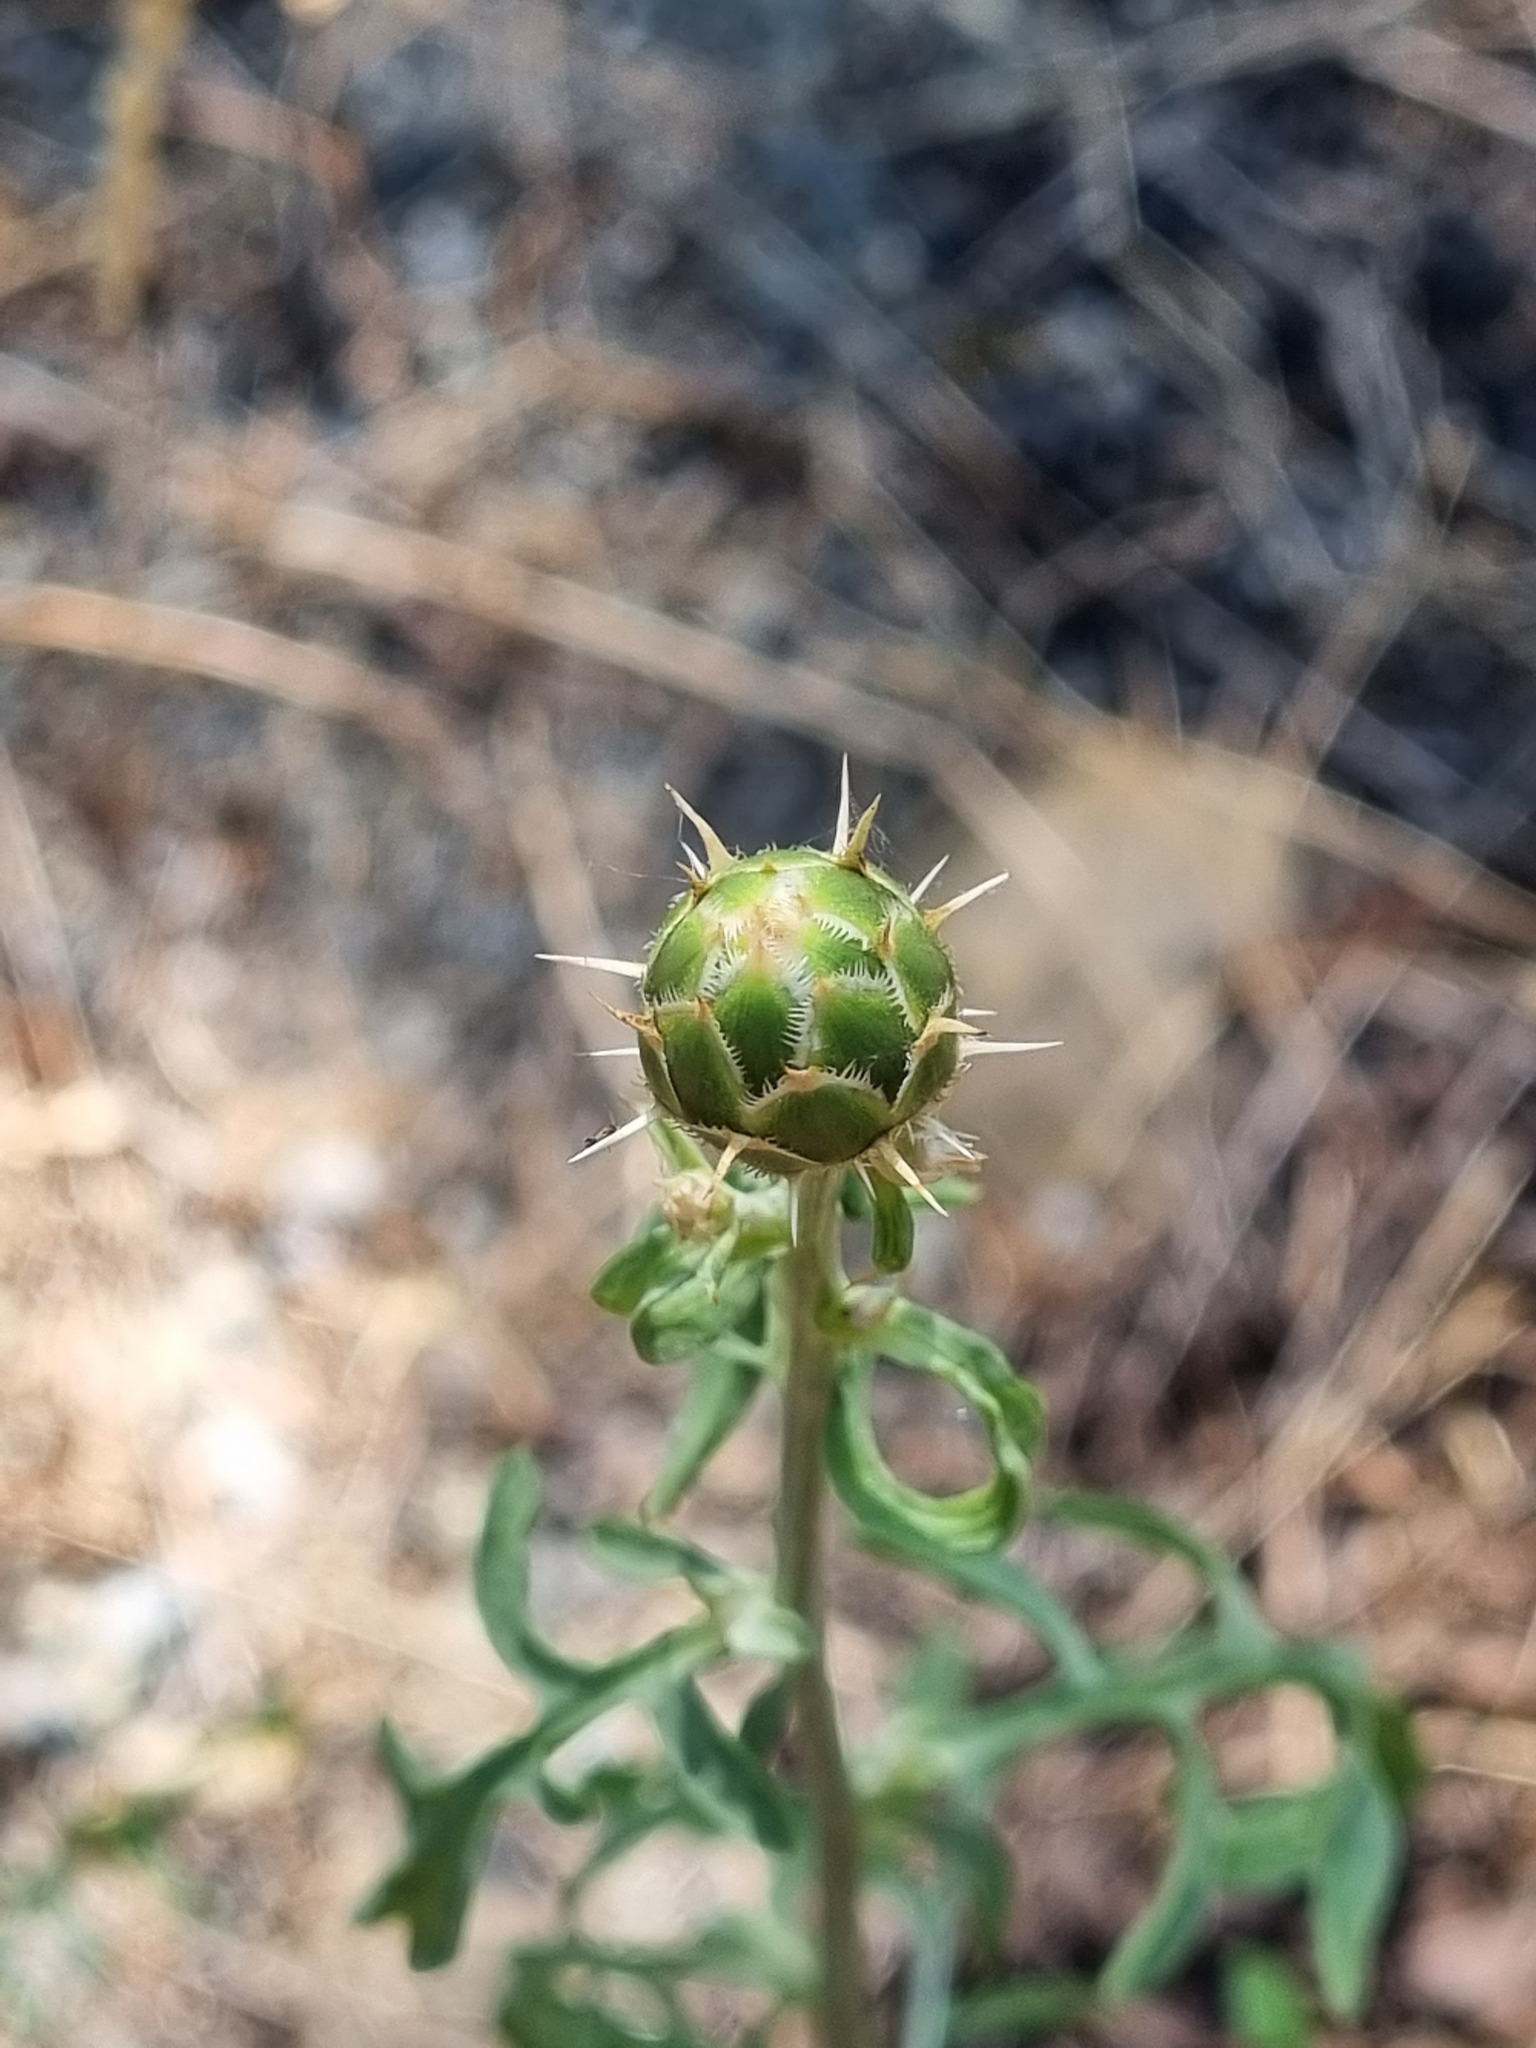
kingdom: Plantae
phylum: Tracheophyta
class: Magnoliopsida
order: Asterales
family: Asteraceae
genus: Centaurea
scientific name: Centaurea salonitana
